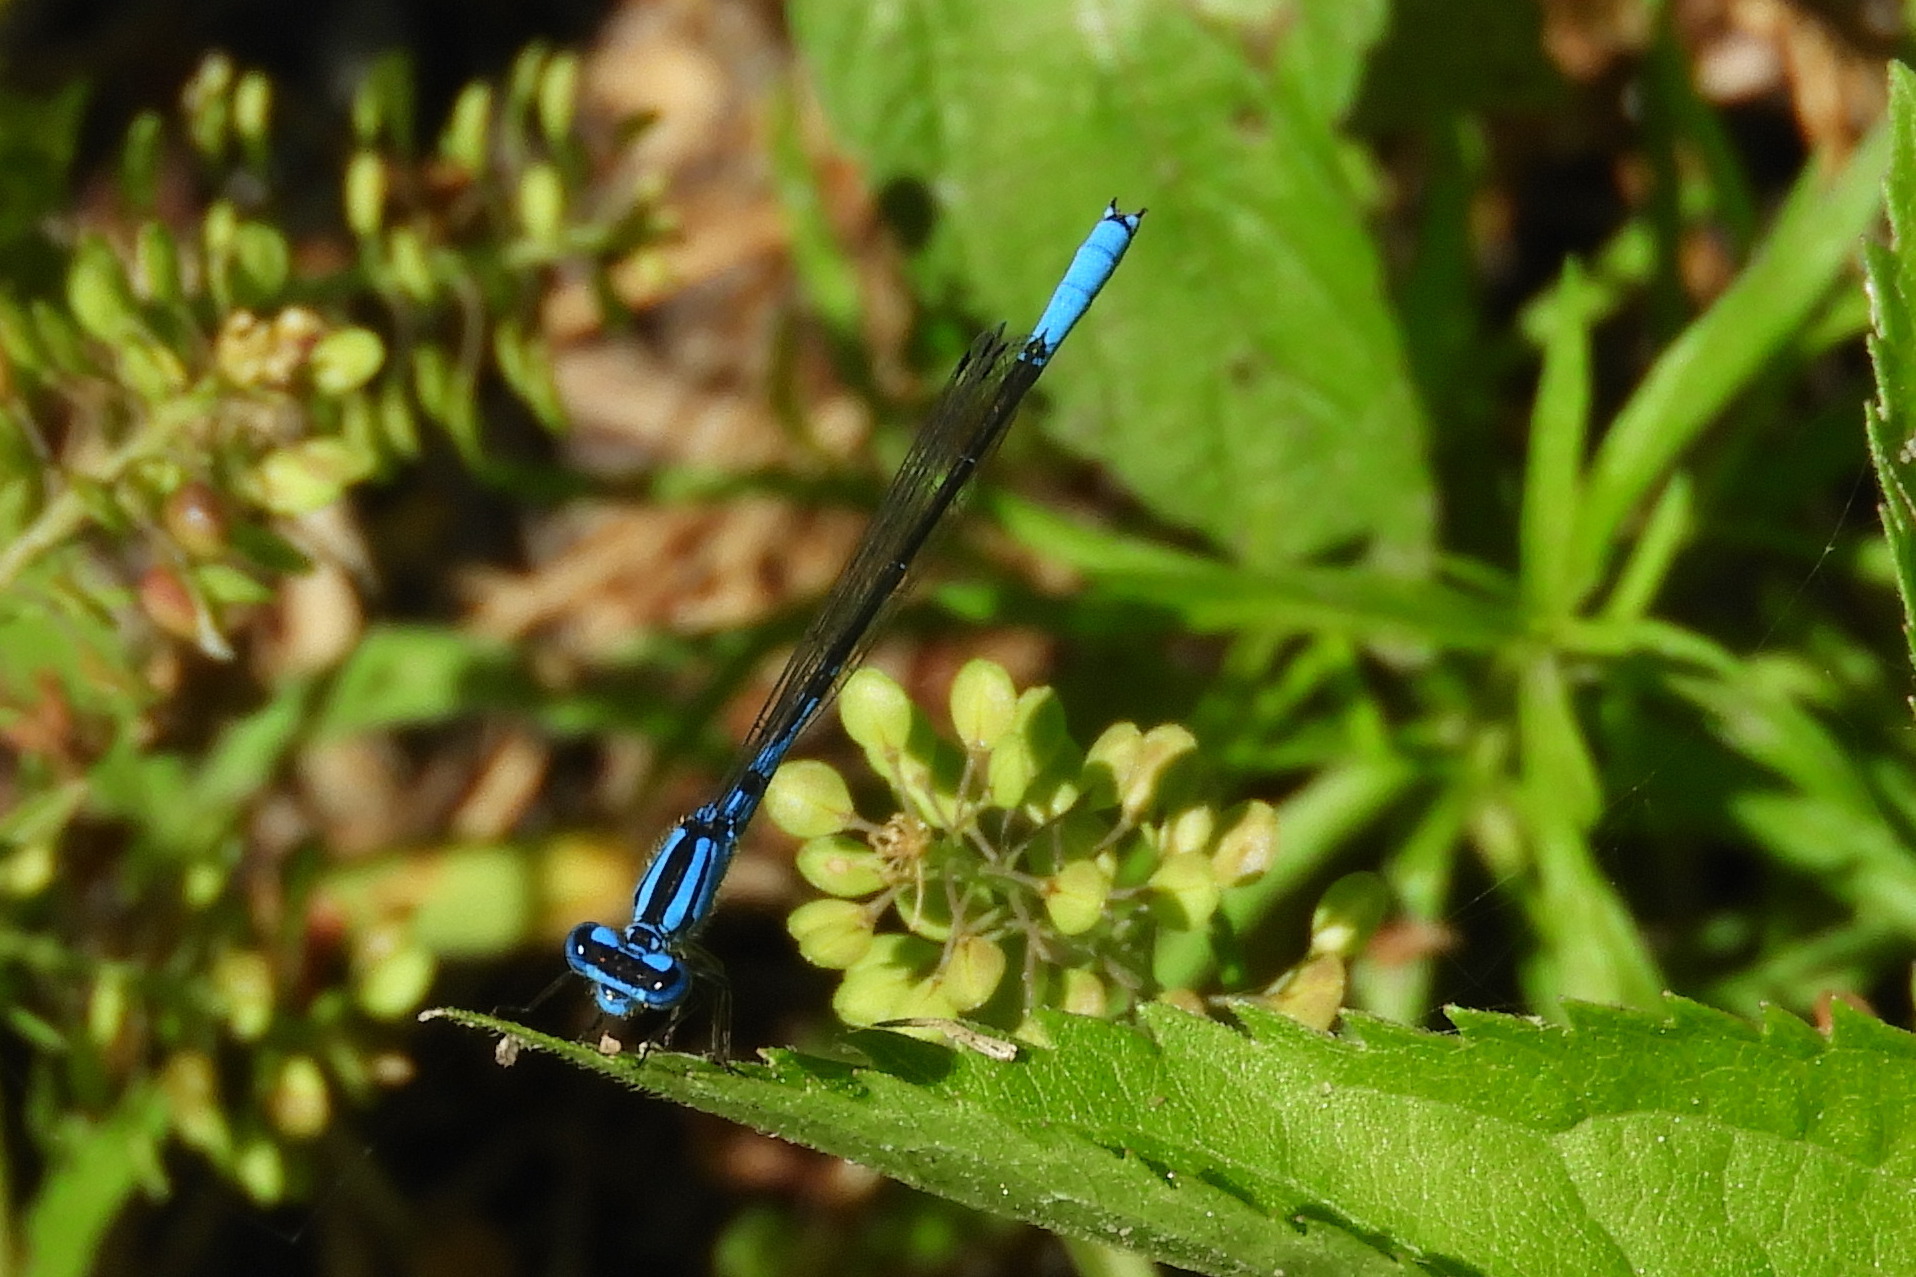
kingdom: Animalia
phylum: Arthropoda
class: Insecta
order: Odonata
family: Coenagrionidae
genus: Enallagma
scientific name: Enallagma aspersum
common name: Azure bluet
